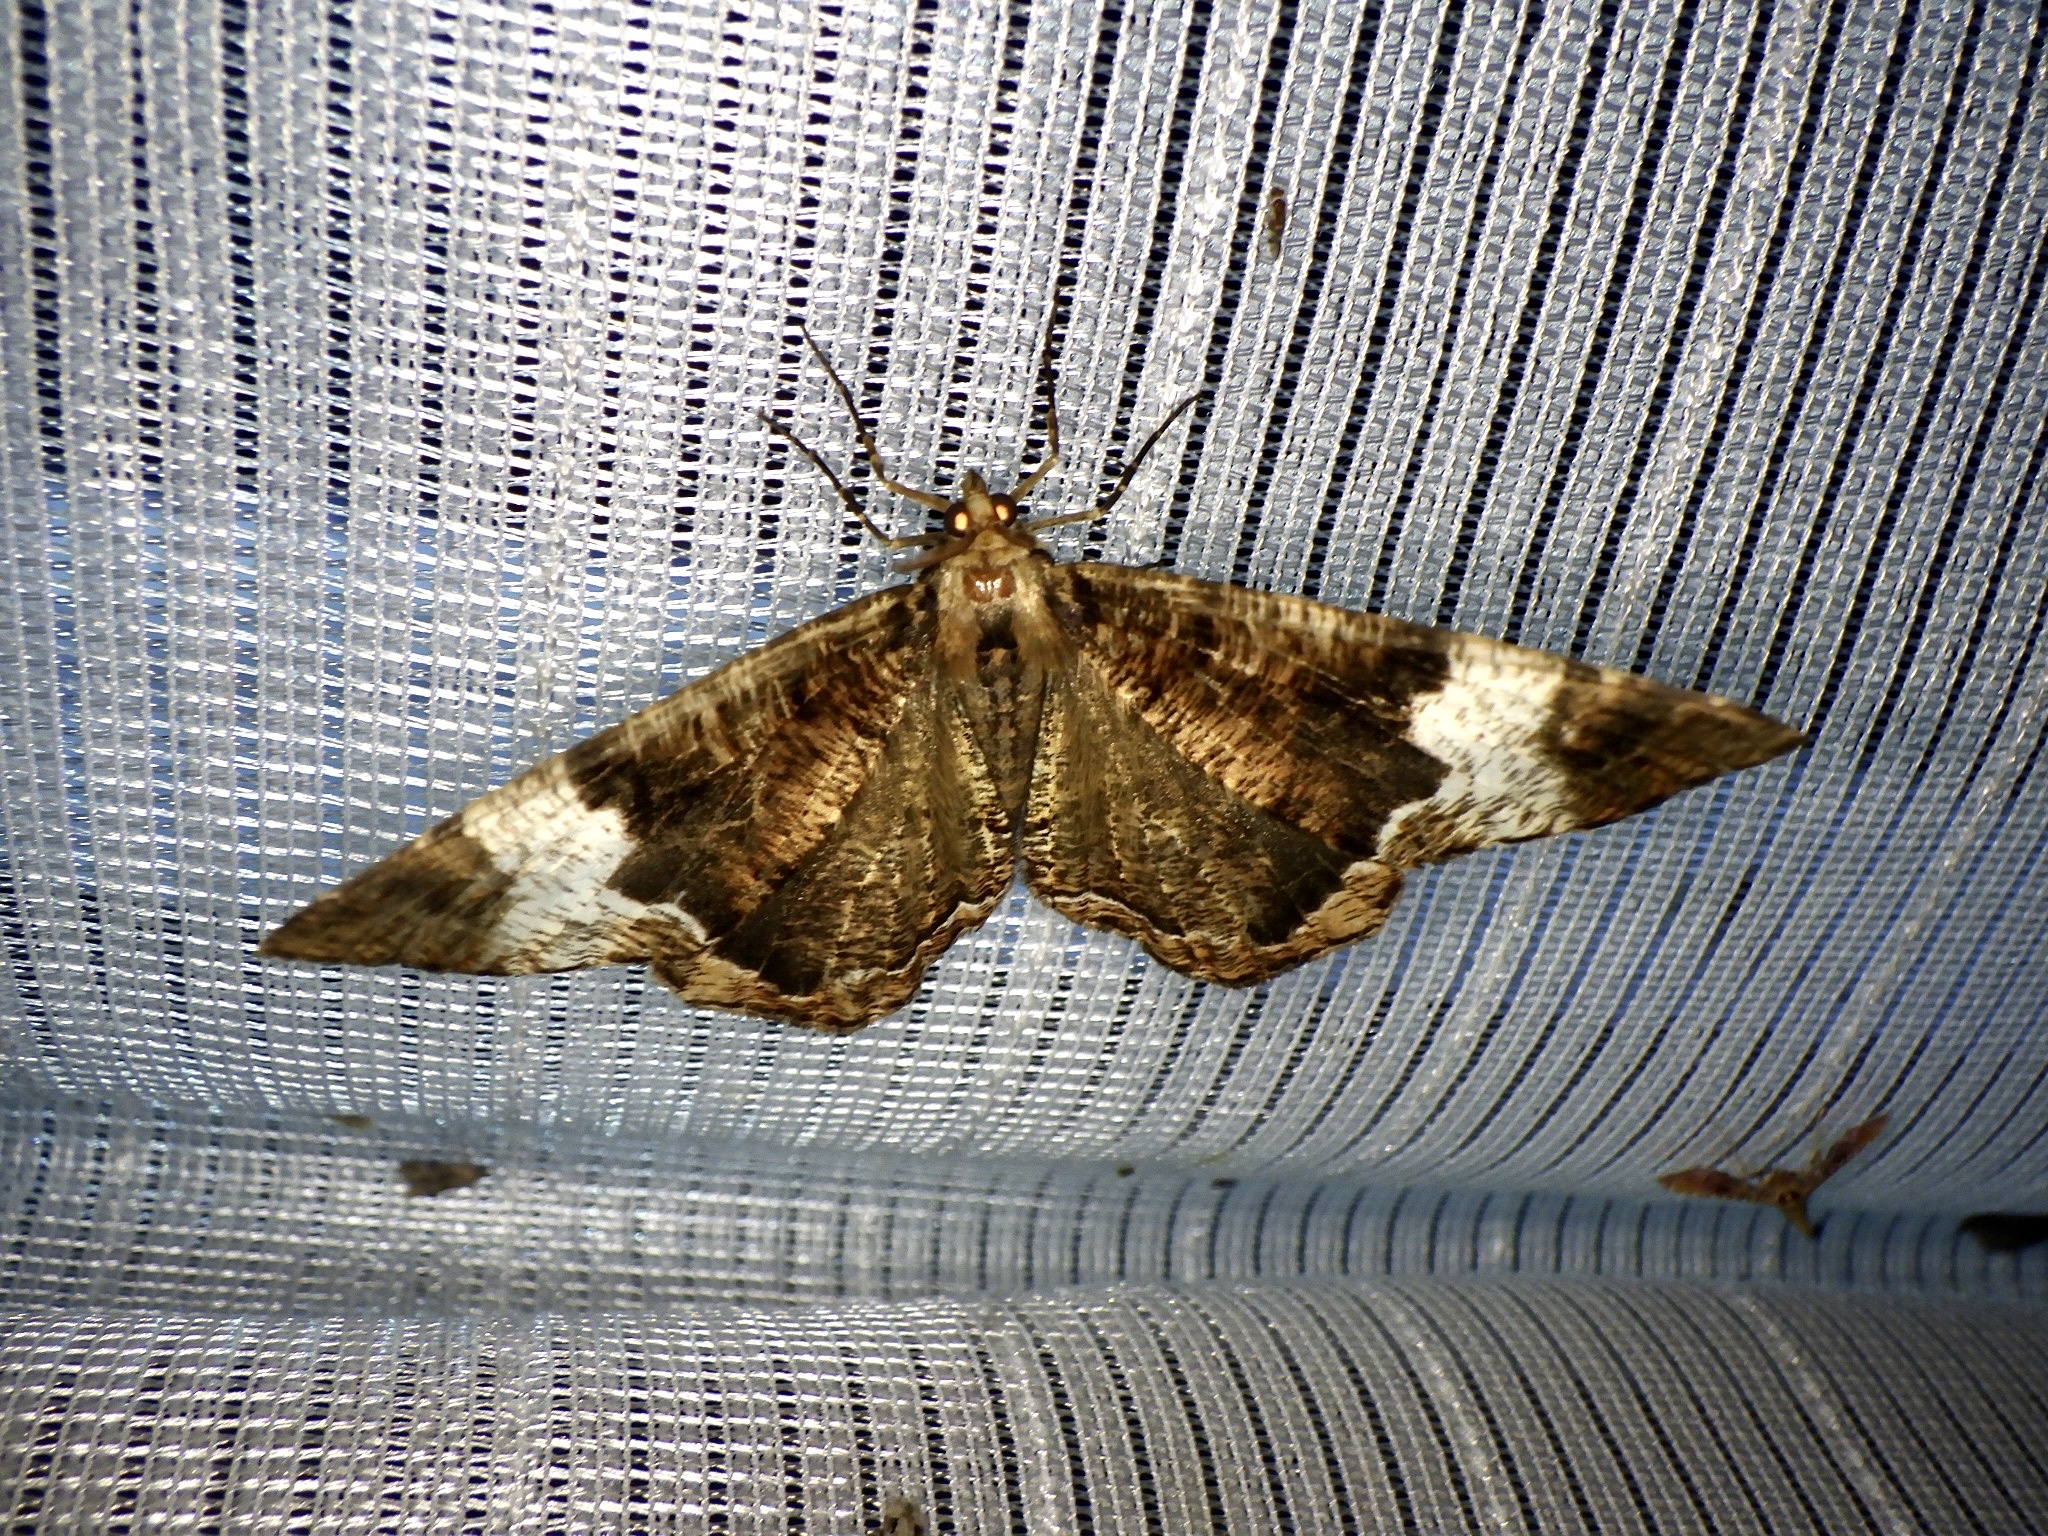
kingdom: Animalia
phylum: Arthropoda
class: Insecta
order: Lepidoptera
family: Geometridae
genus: Xandrames
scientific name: Xandrames latiferaria
